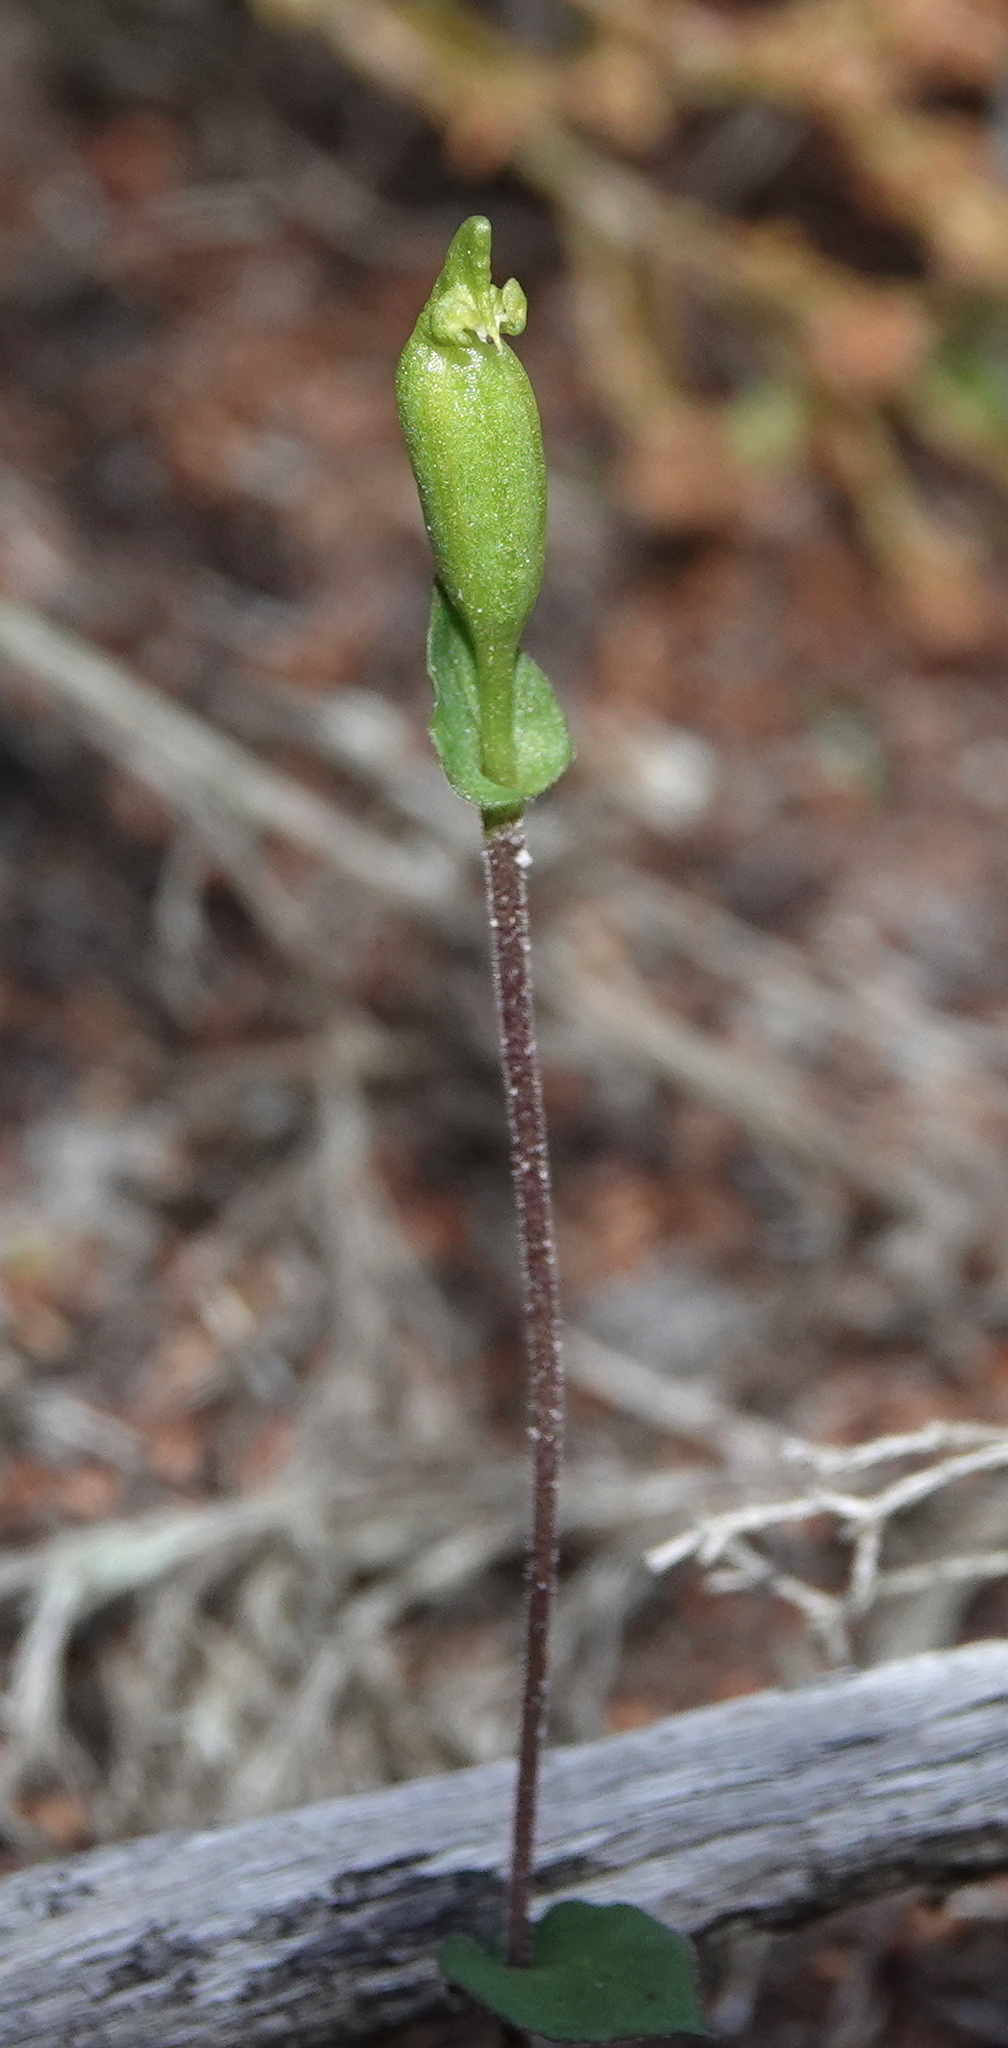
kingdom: Plantae
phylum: Tracheophyta
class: Liliopsida
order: Asparagales
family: Orchidaceae
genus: Disperis
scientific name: Disperis bodkinii
